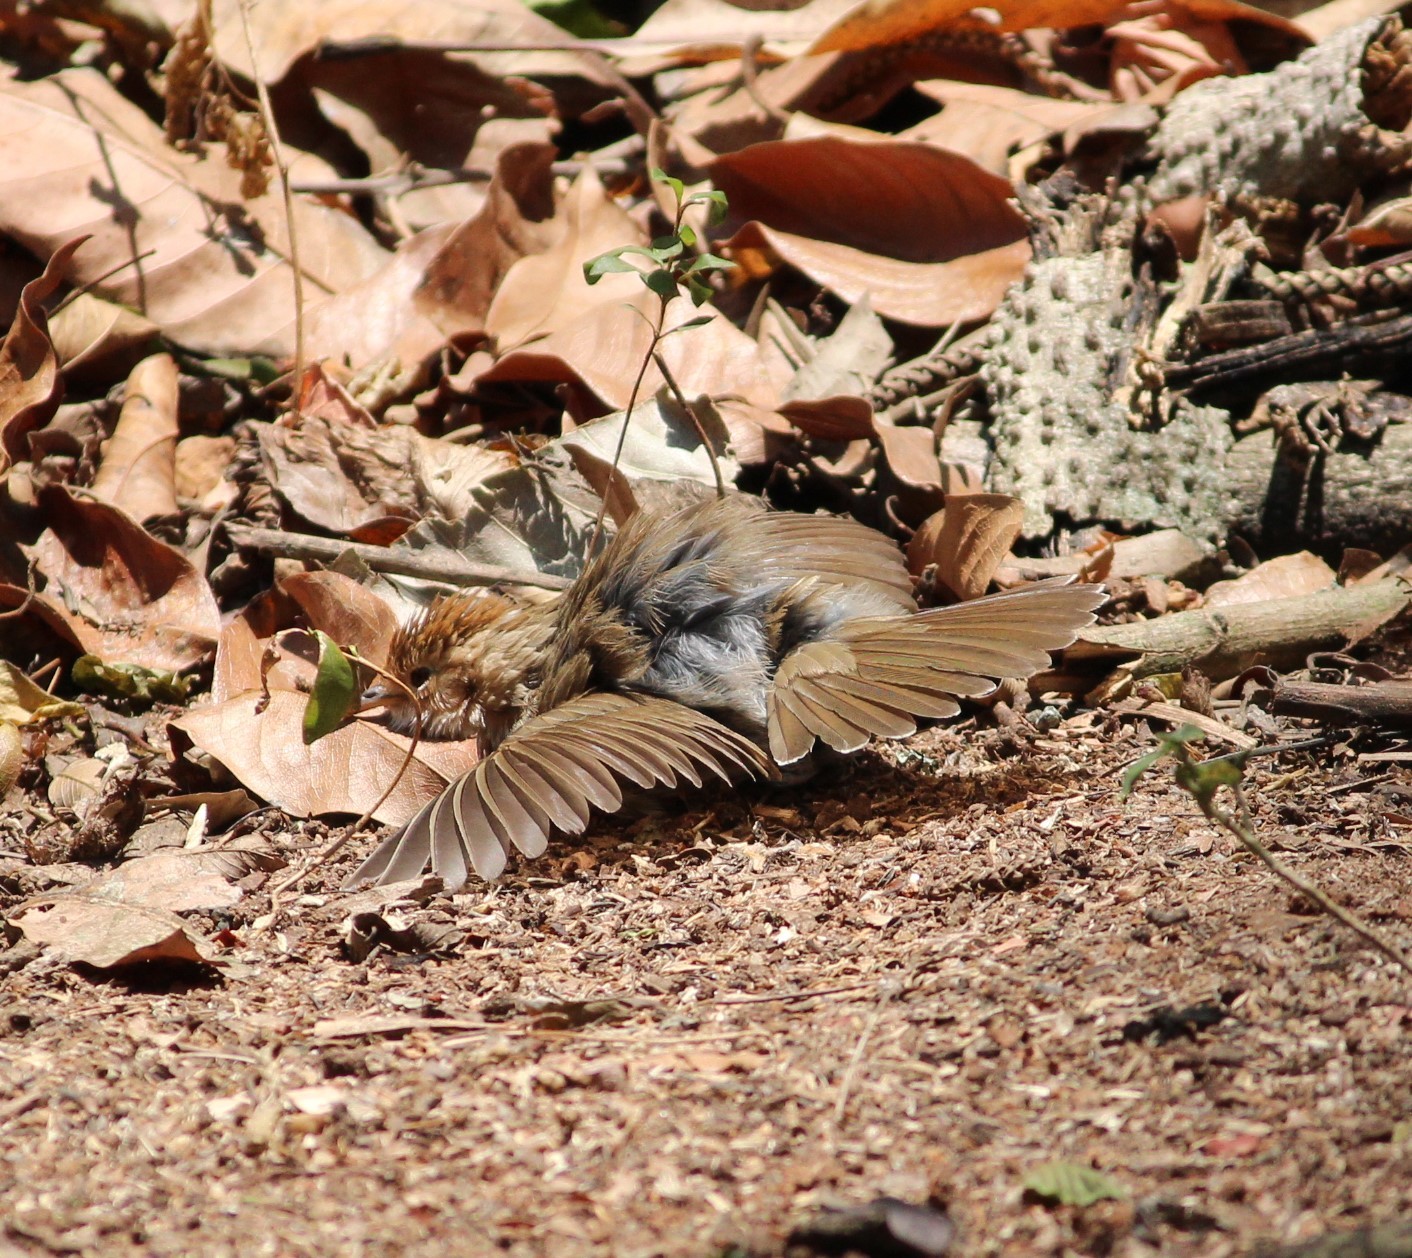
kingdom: Animalia
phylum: Chordata
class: Aves
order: Passeriformes
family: Pellorneidae
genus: Pellorneum
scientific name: Pellorneum ruficeps
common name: Puff-throated babbler
